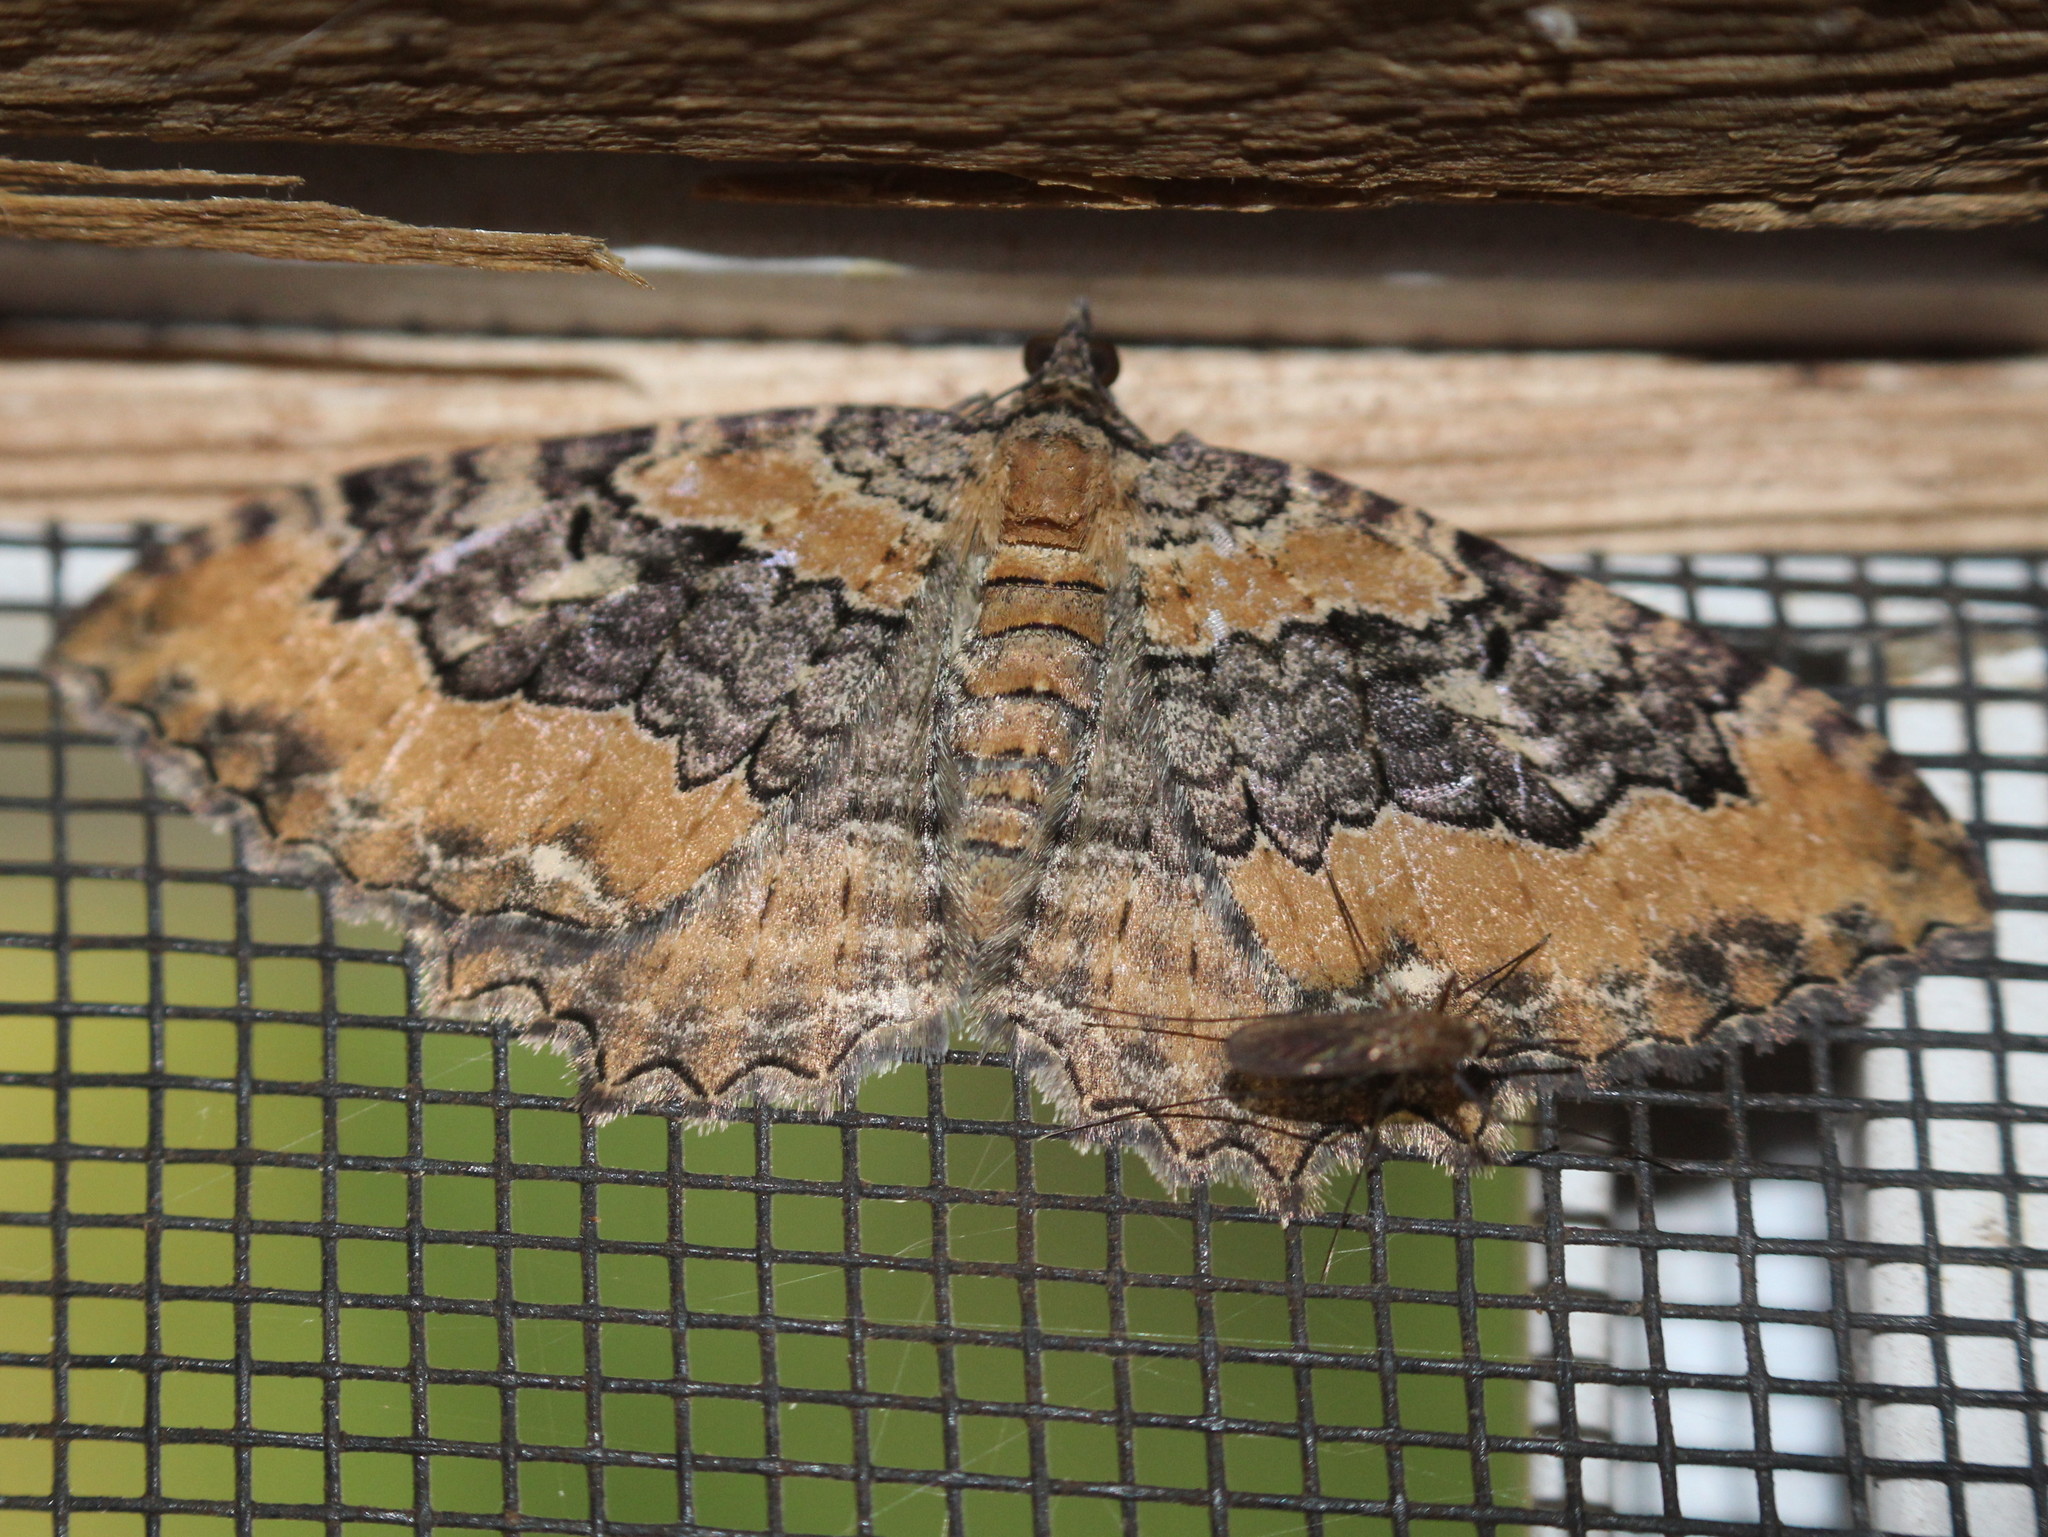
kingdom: Animalia
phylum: Arthropoda
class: Insecta
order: Lepidoptera
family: Geometridae
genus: Rheumaptera
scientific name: Rheumaptera
